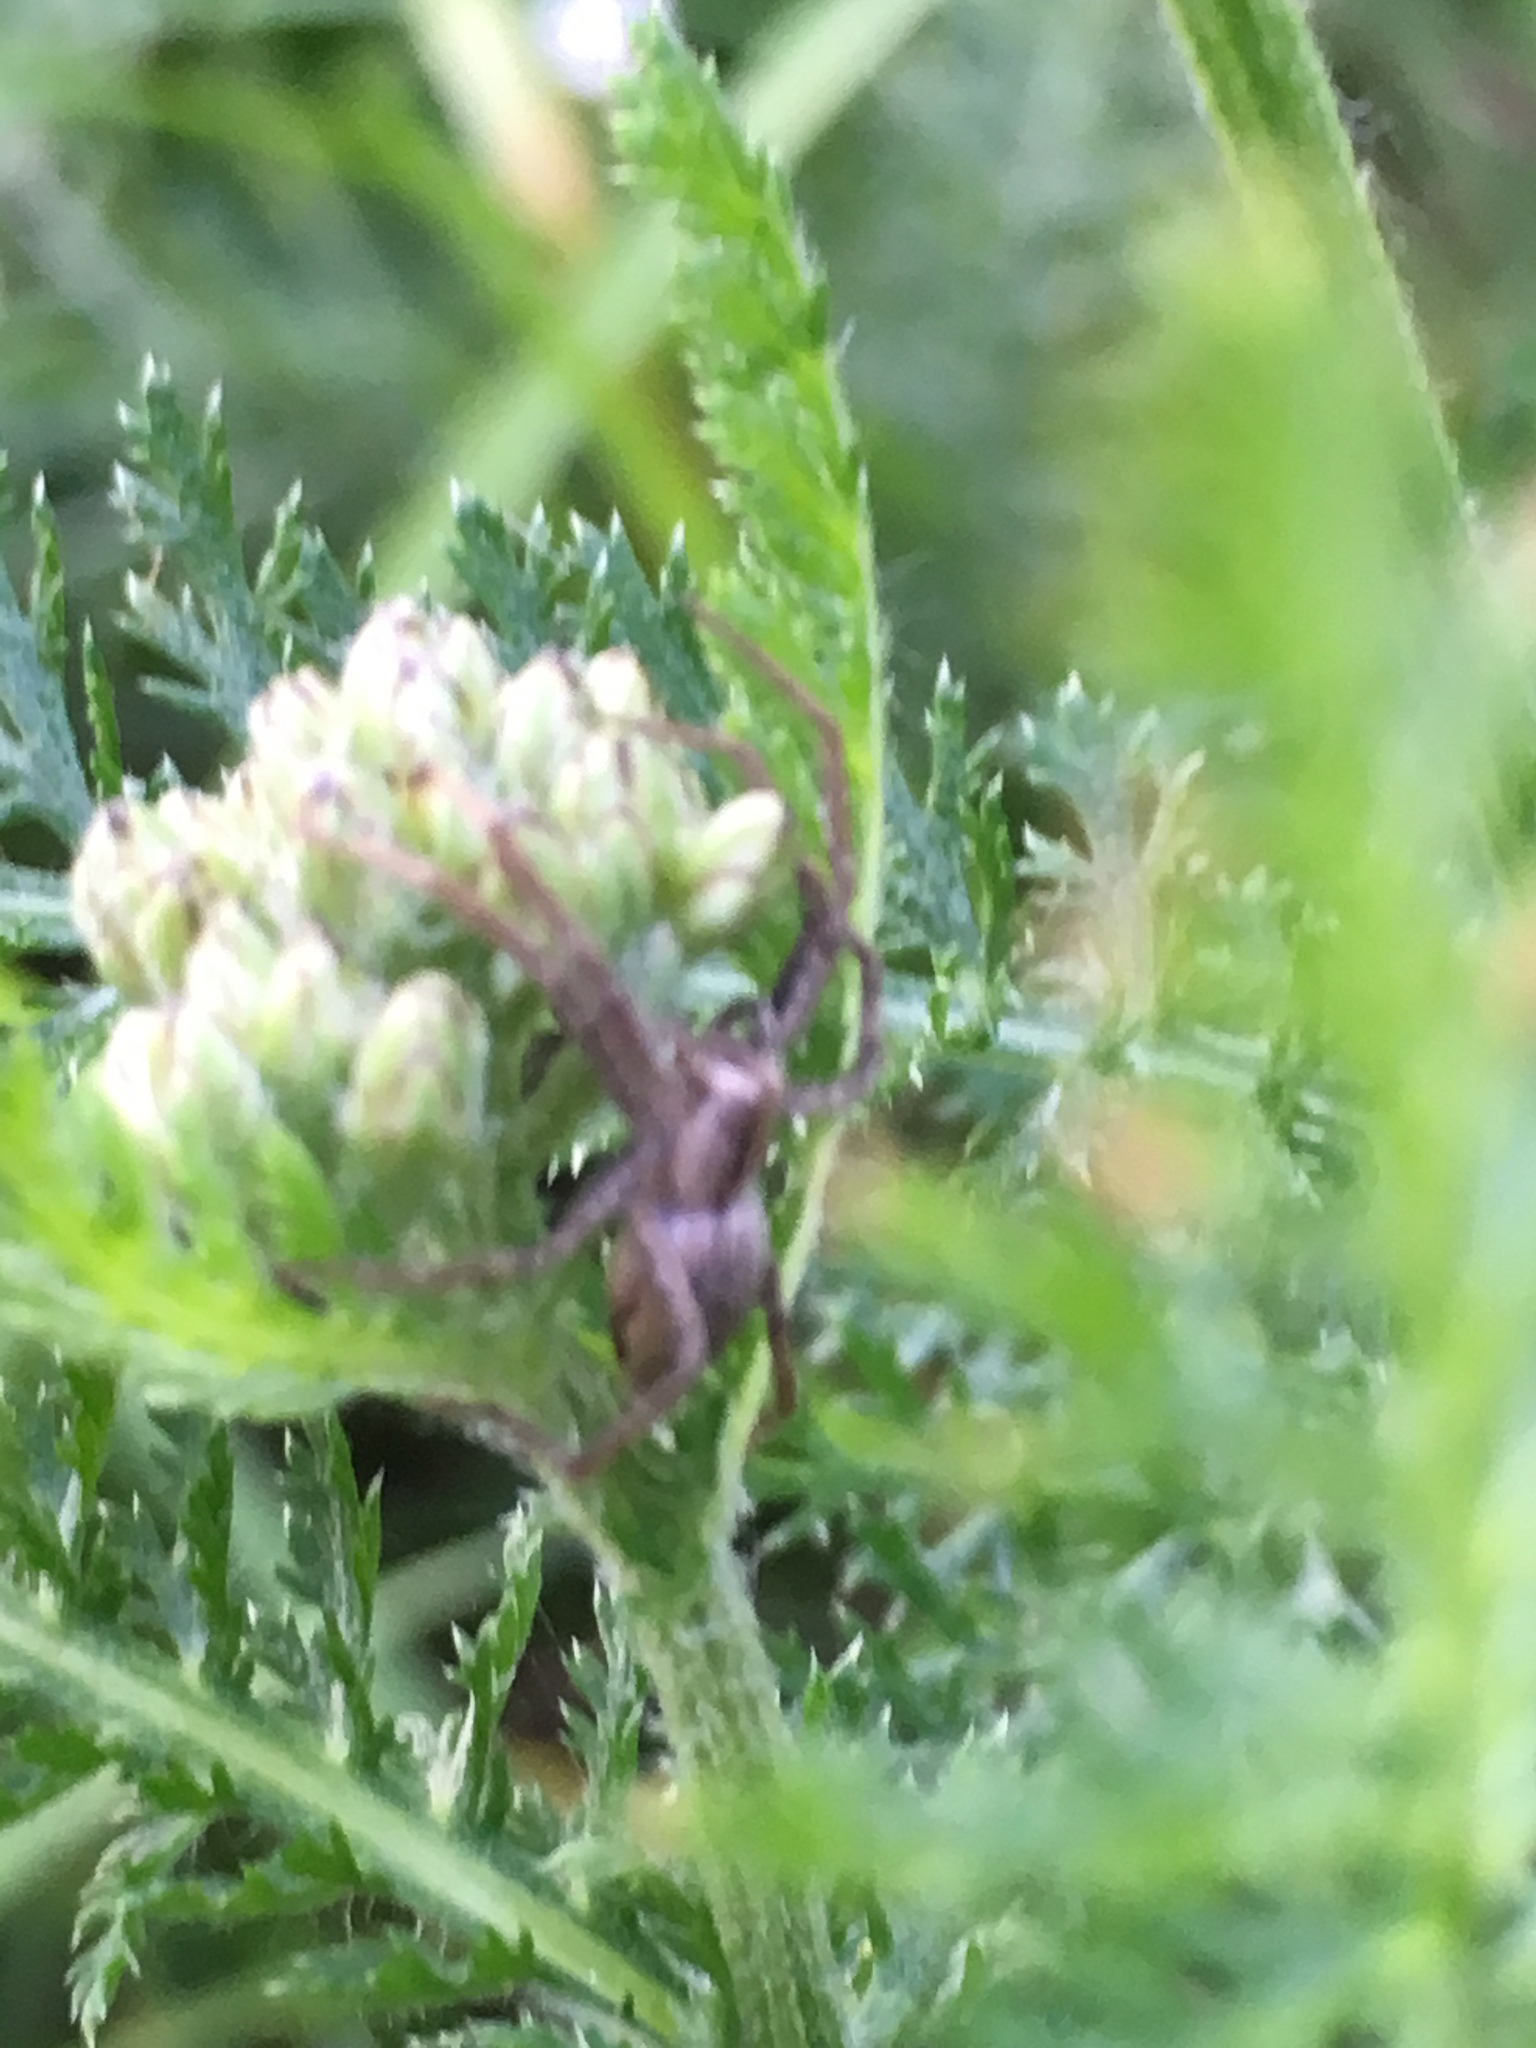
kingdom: Animalia
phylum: Arthropoda
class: Arachnida
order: Araneae
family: Pisauridae
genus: Pisaura
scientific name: Pisaura mirabilis
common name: Tent spider
